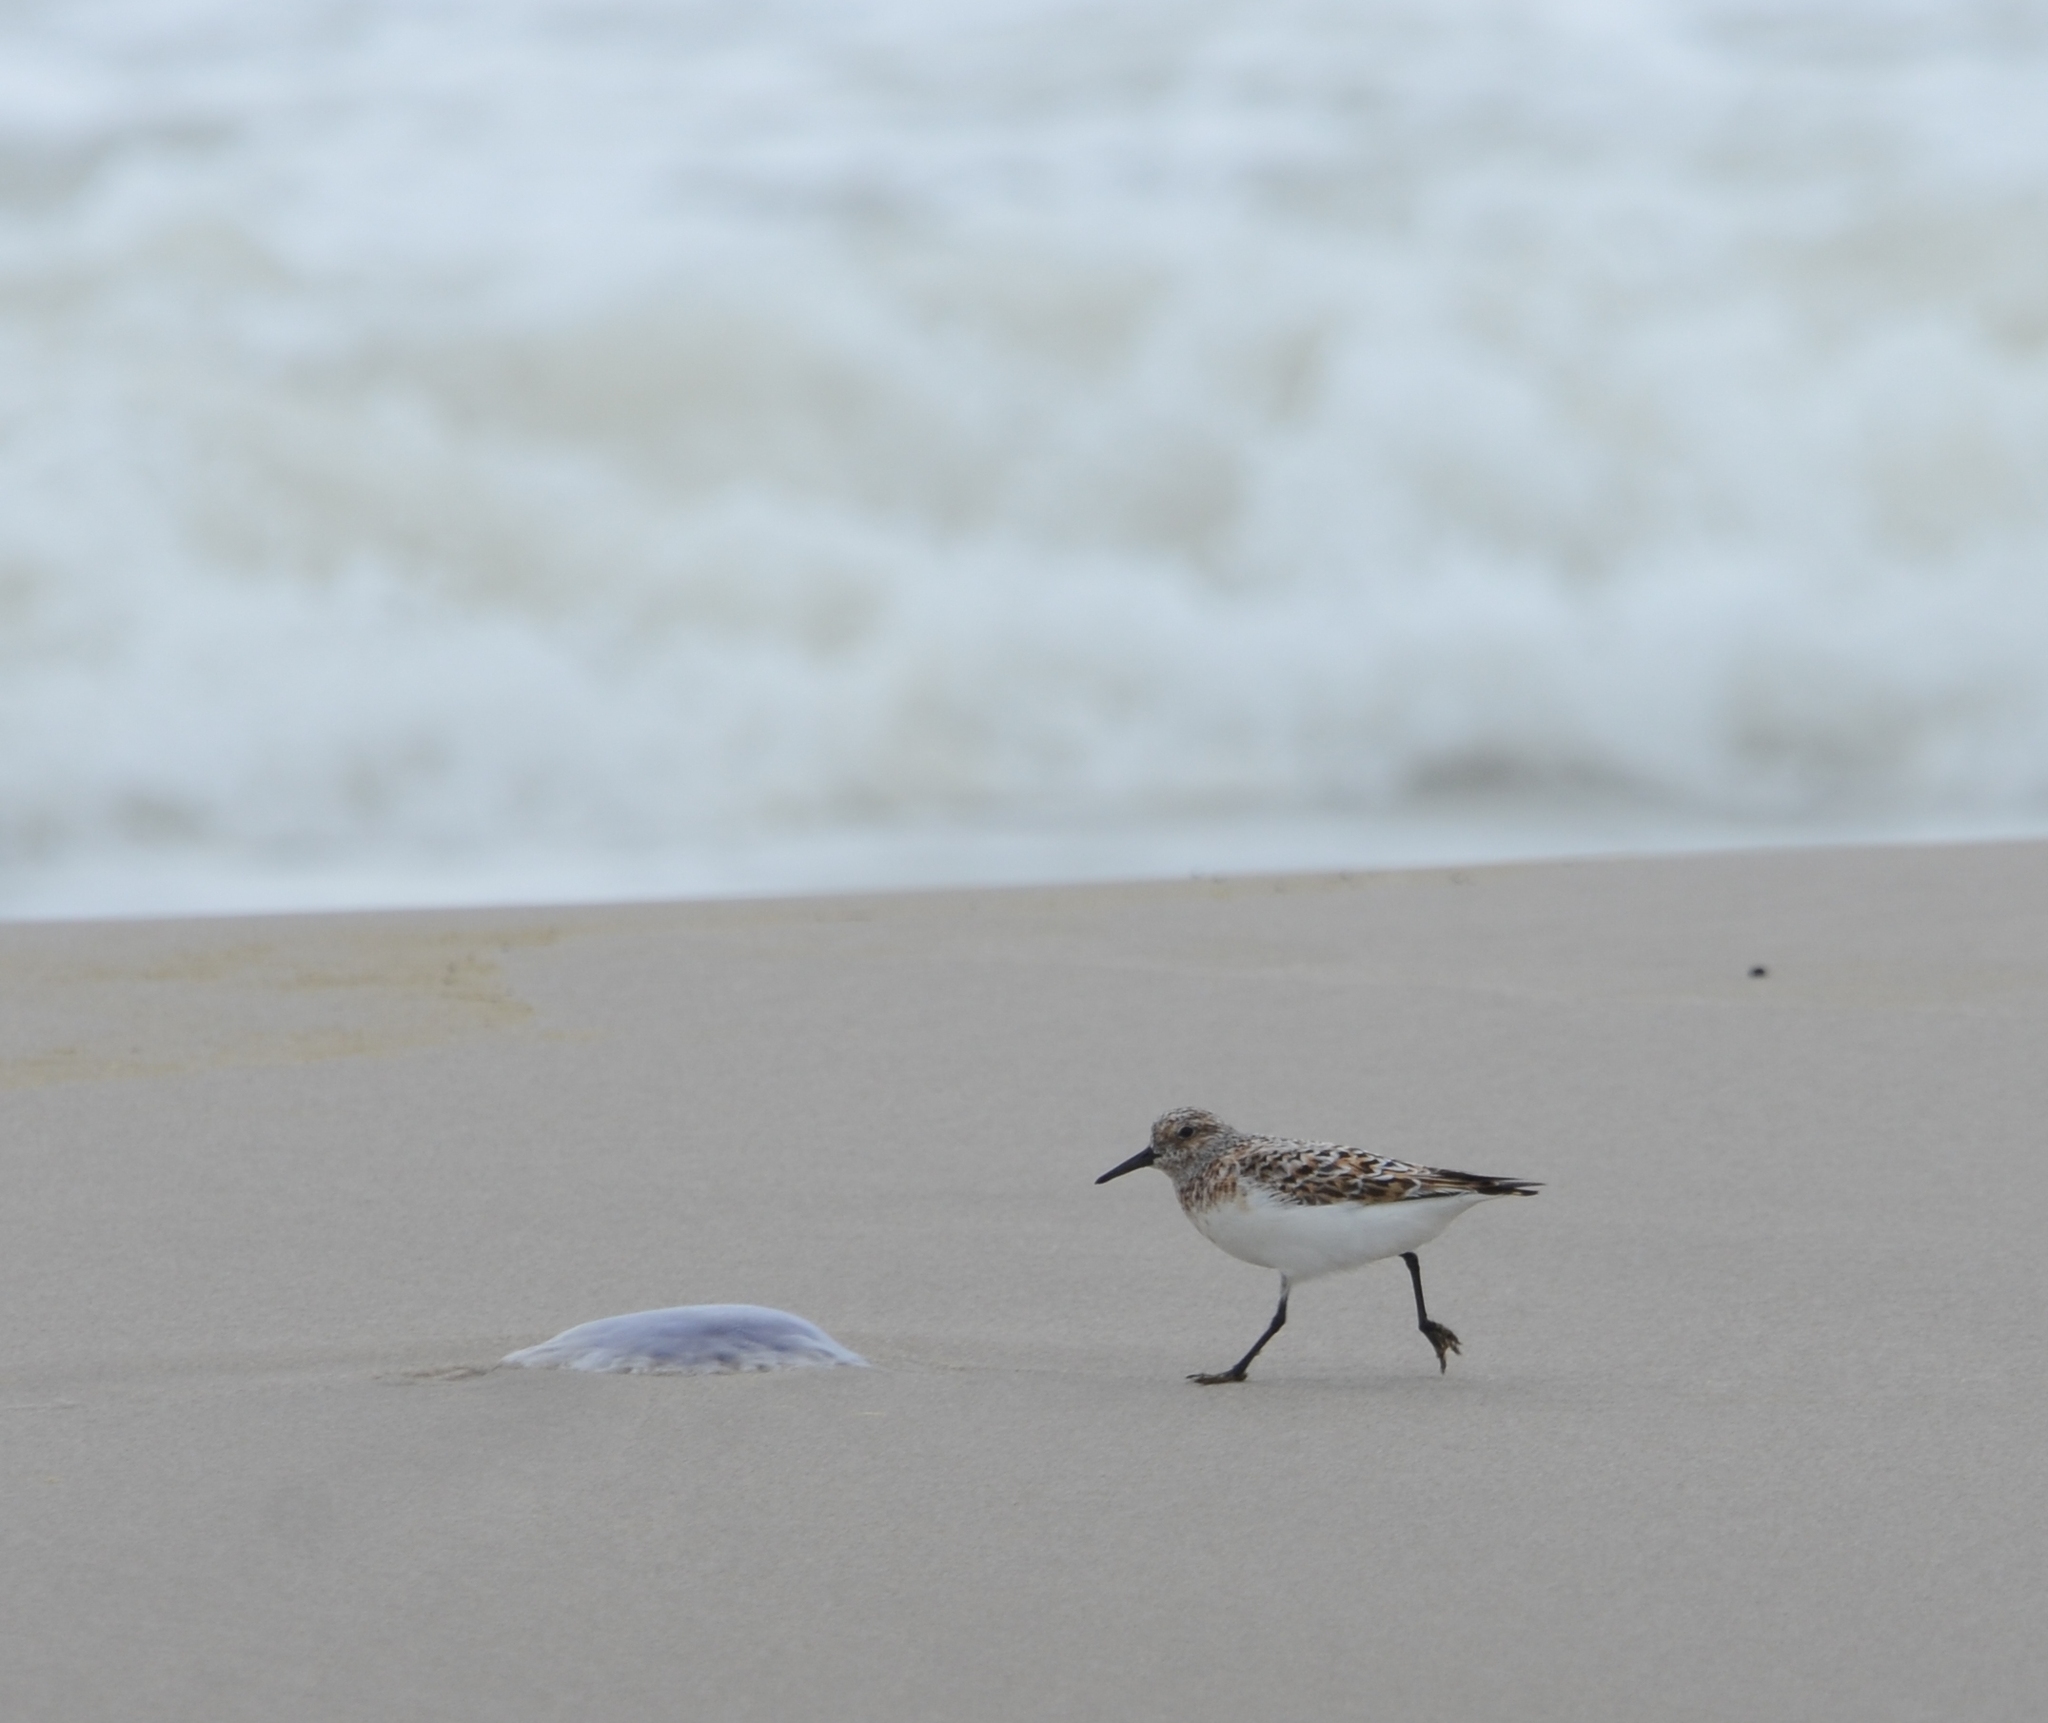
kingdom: Animalia
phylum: Chordata
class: Aves
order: Charadriiformes
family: Scolopacidae
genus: Calidris
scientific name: Calidris alba
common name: Sanderling
